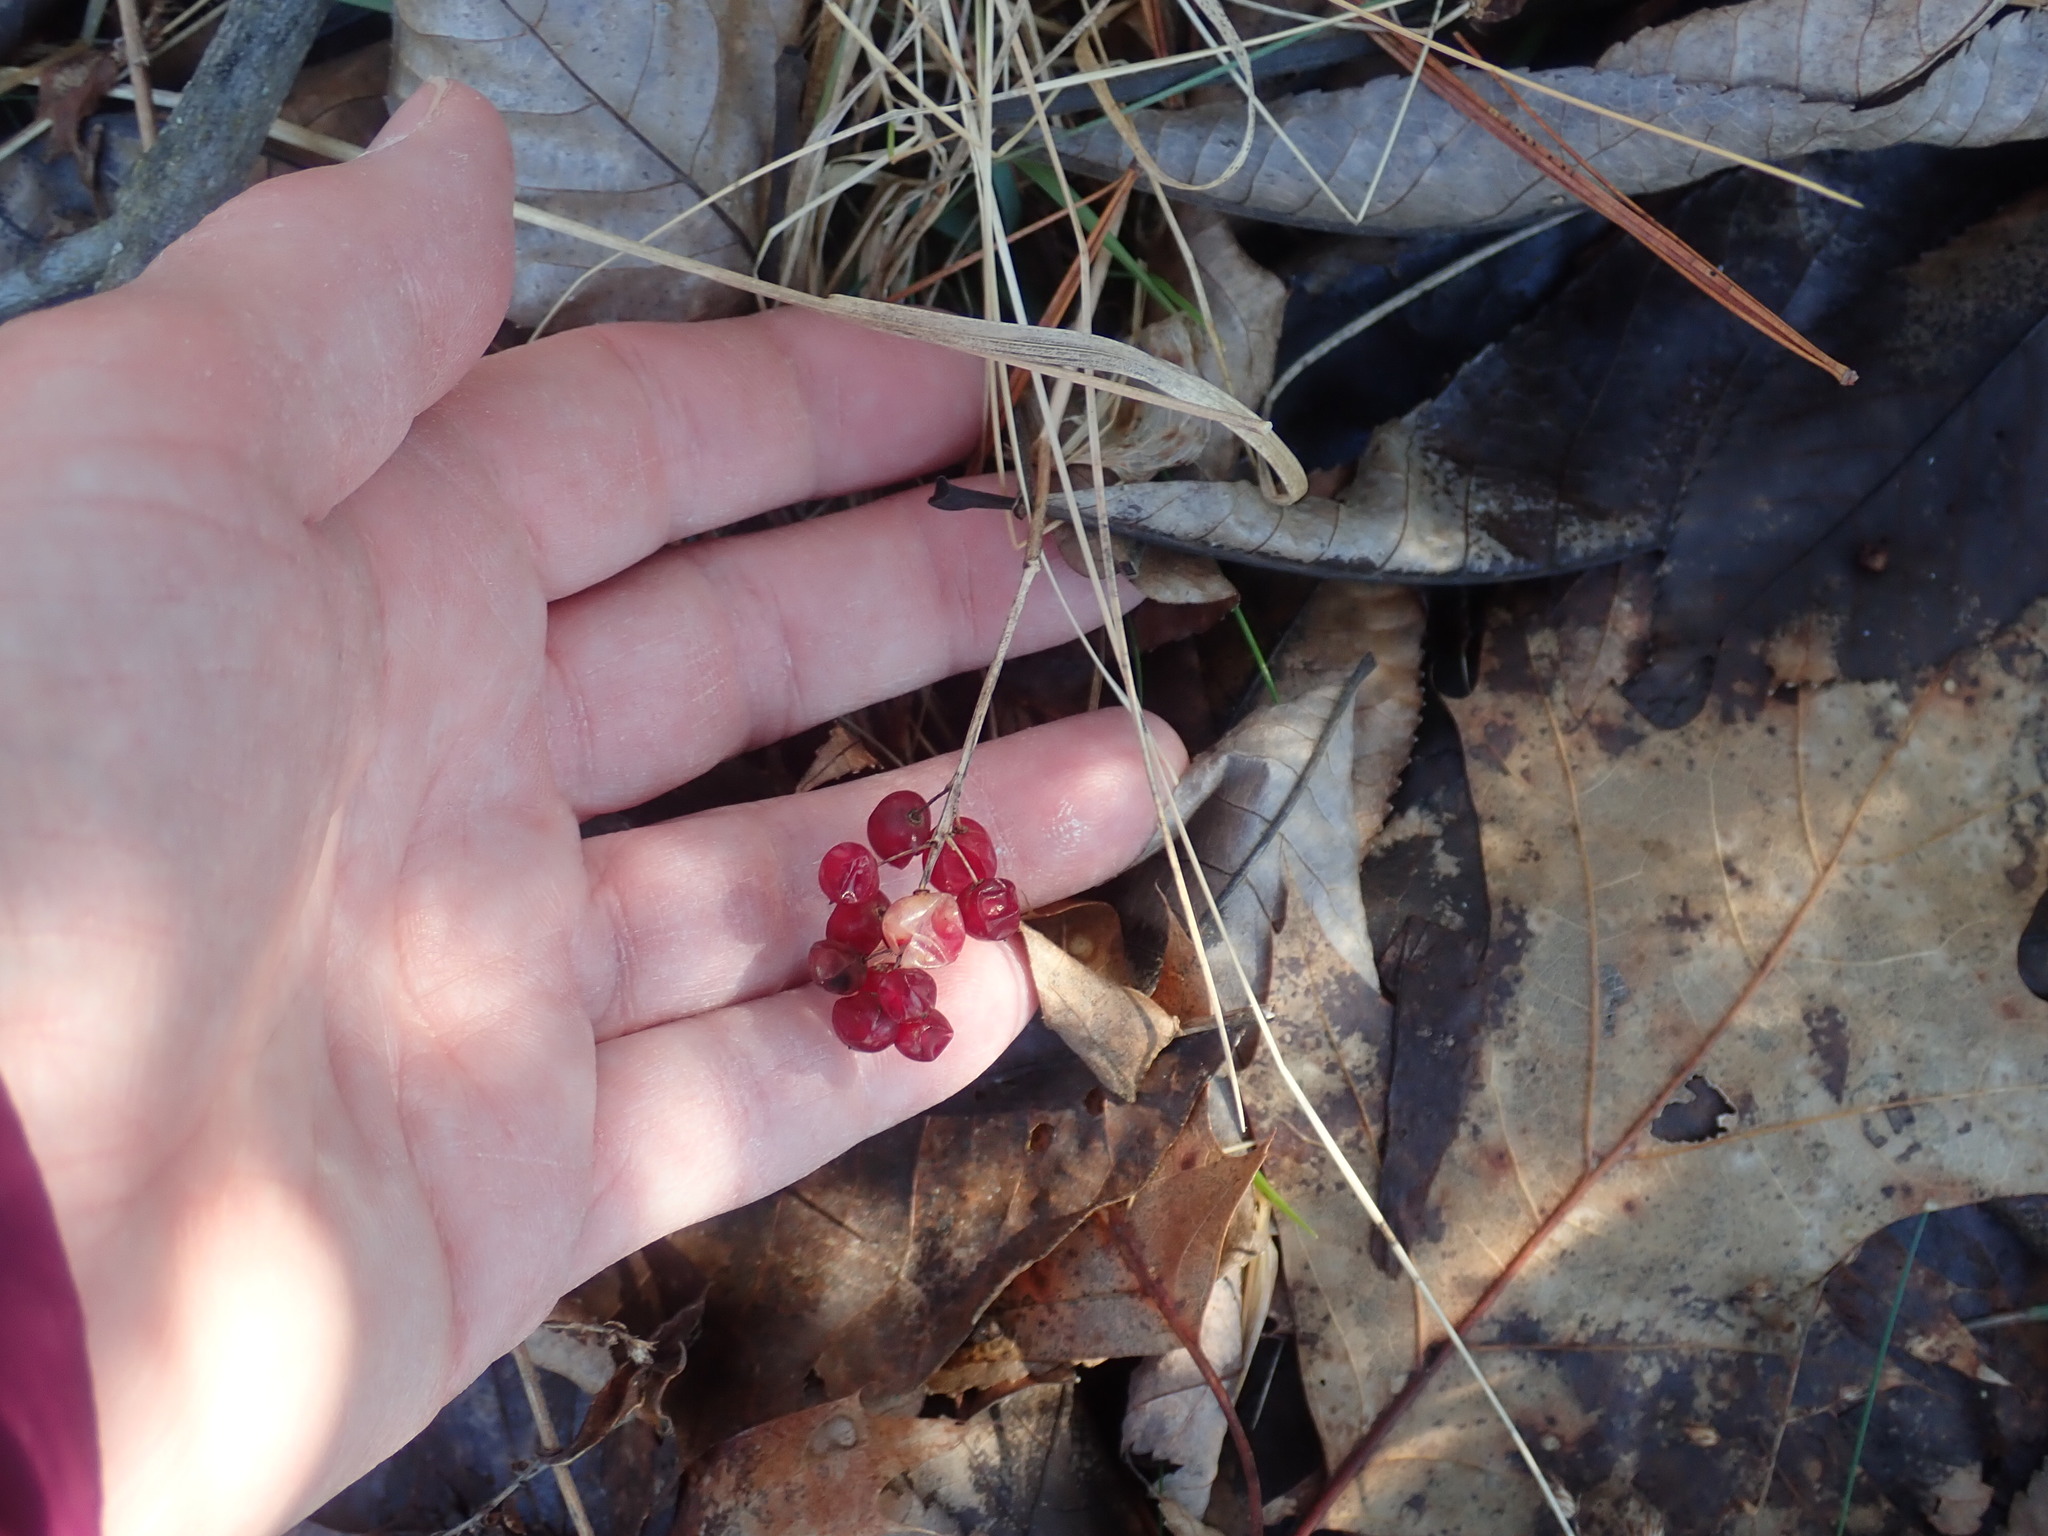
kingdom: Plantae
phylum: Tracheophyta
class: Liliopsida
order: Asparagales
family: Asparagaceae
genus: Maianthemum
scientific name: Maianthemum canadense
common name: False lily-of-the-valley
